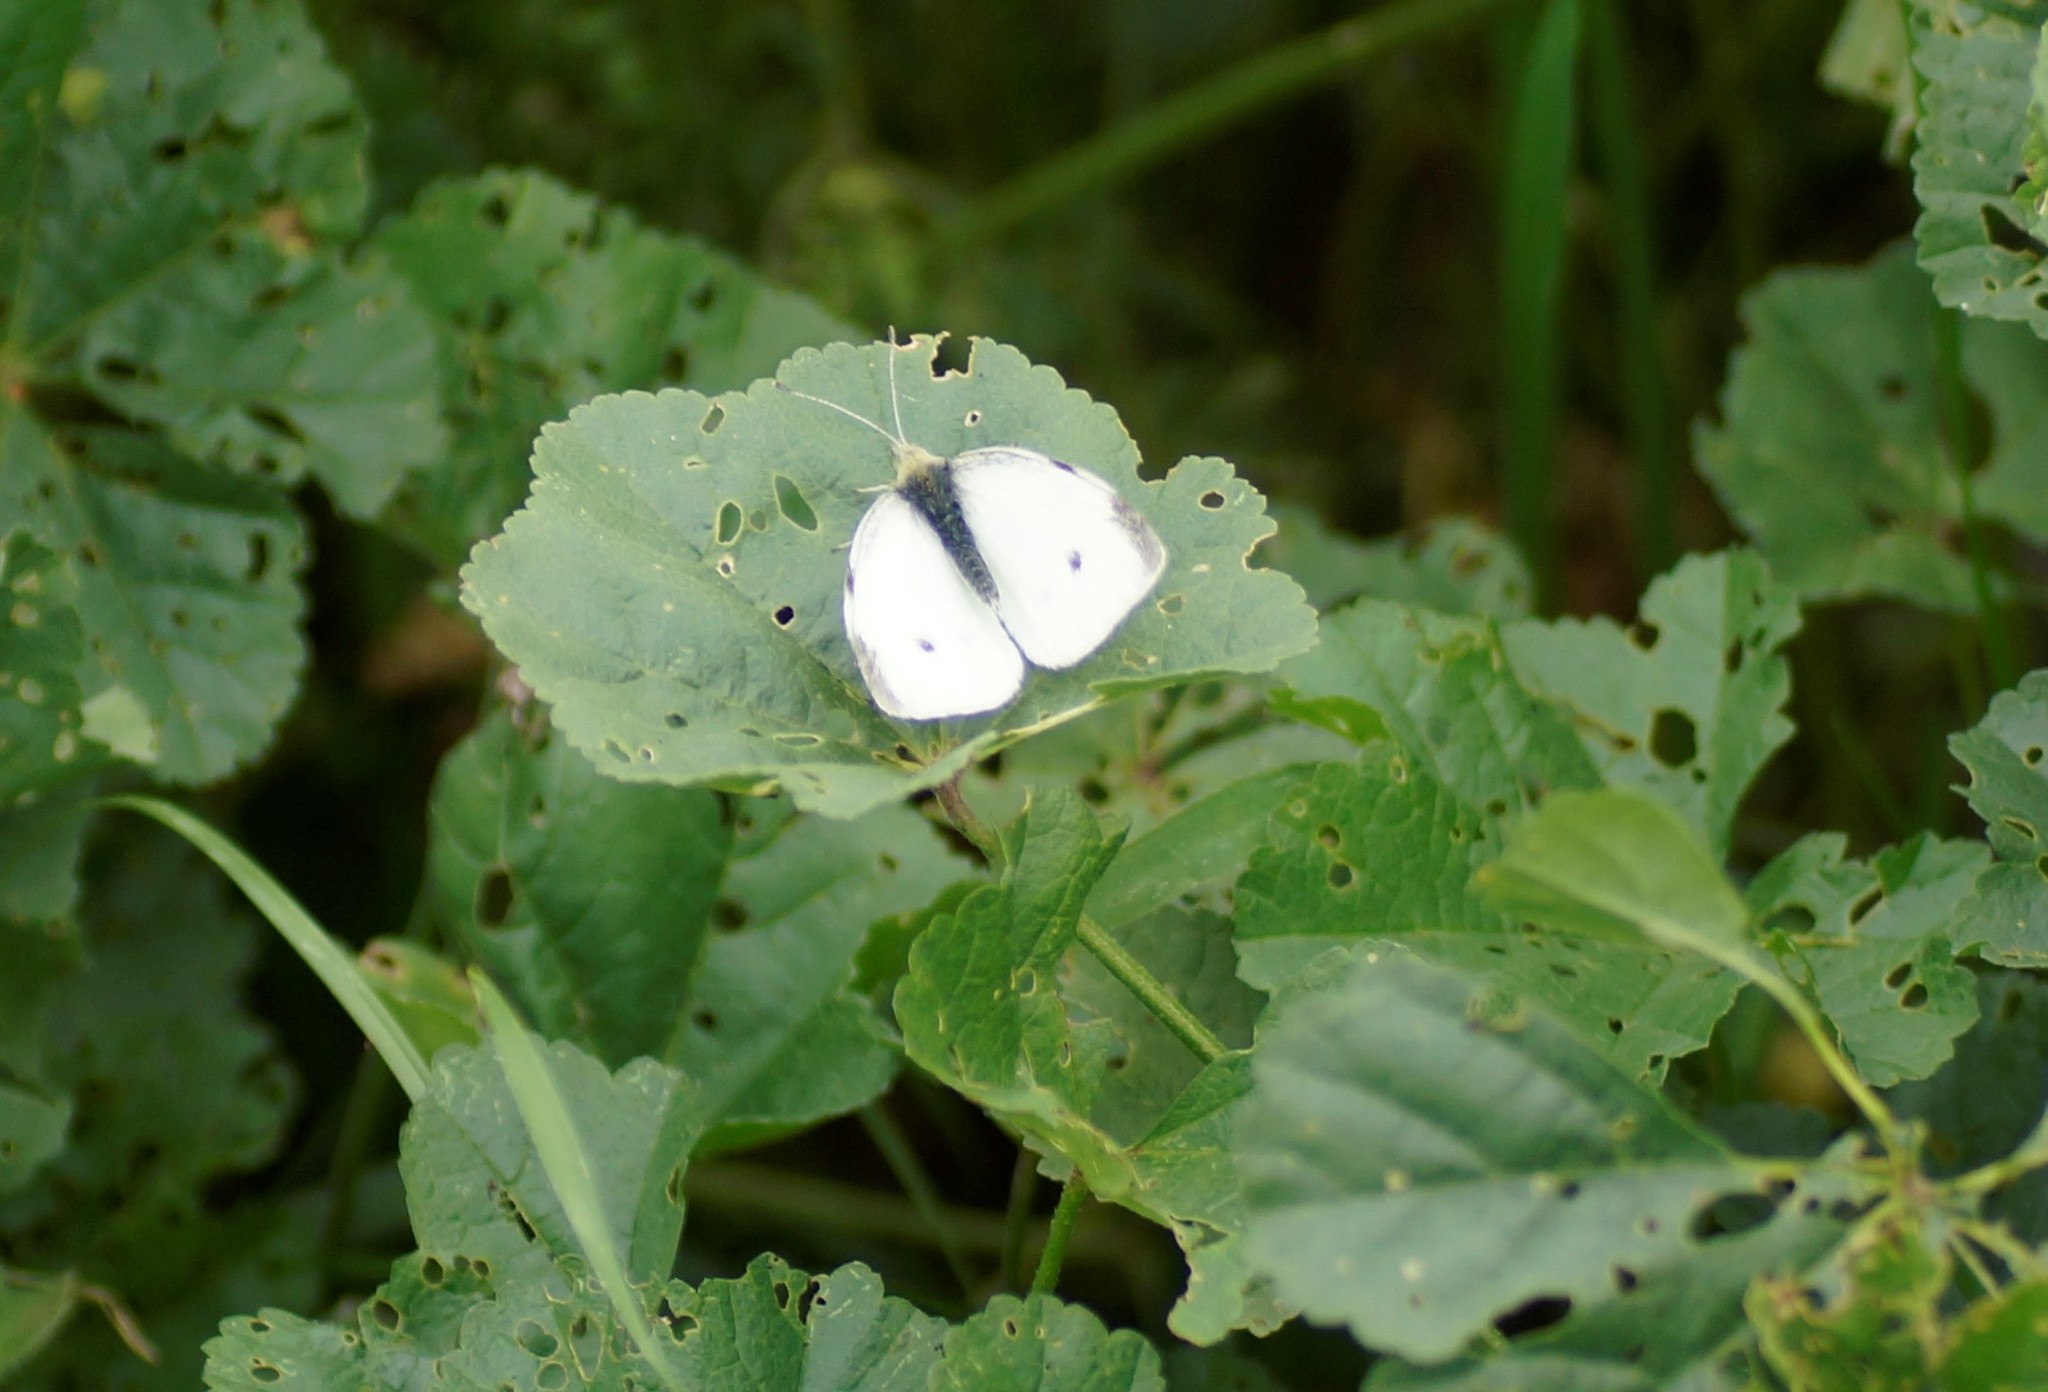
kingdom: Animalia
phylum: Arthropoda
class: Insecta
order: Lepidoptera
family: Pieridae
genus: Pieris
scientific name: Pieris rapae
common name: Small white
